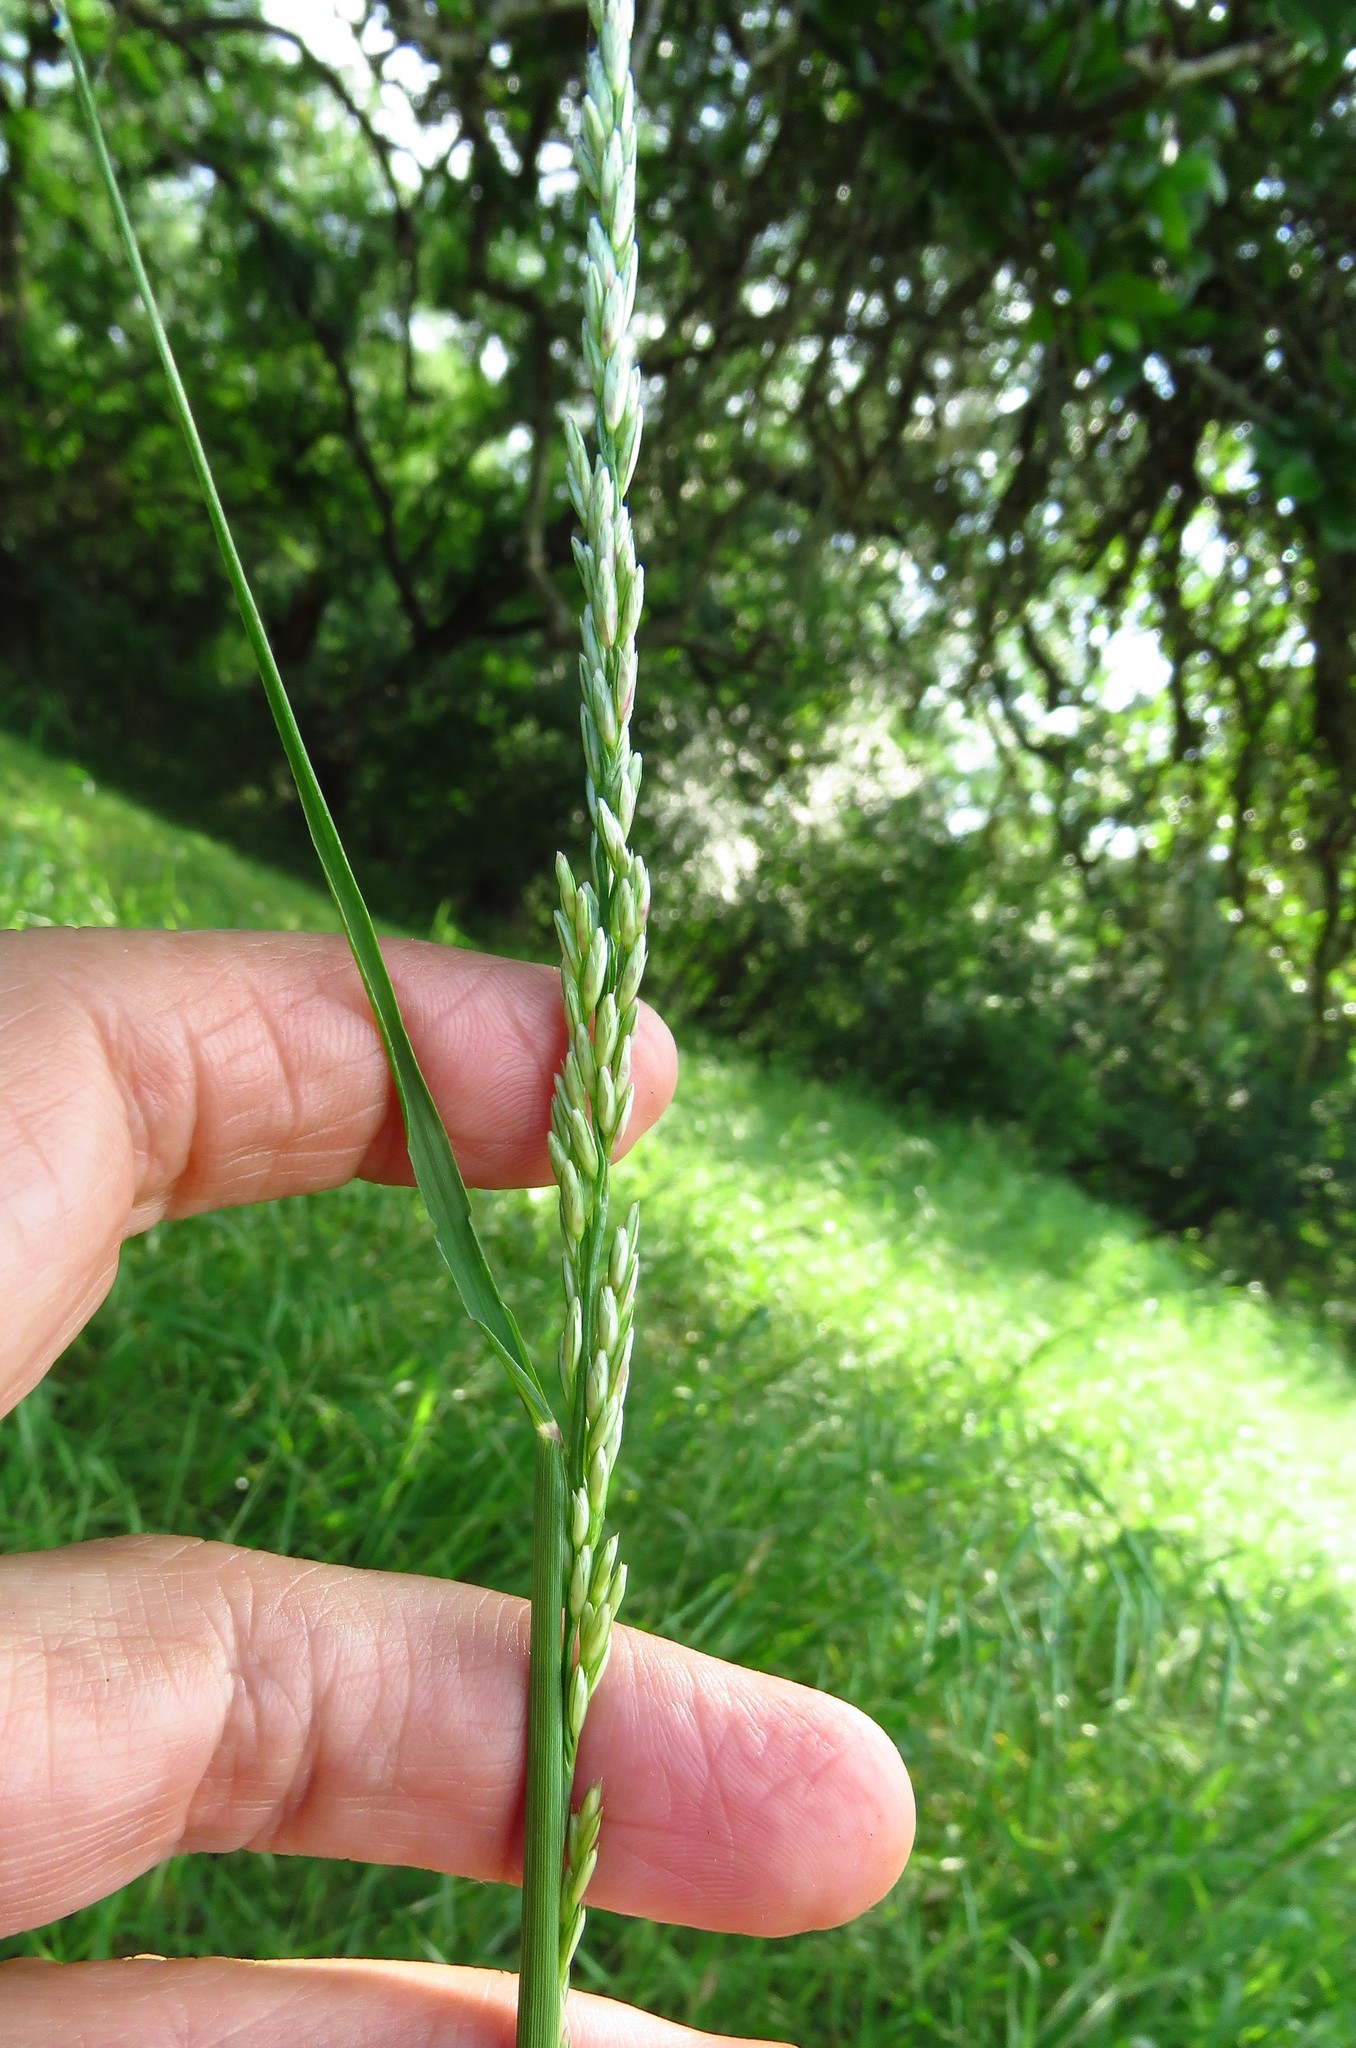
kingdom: Plantae
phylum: Tracheophyta
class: Liliopsida
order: Poales
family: Poaceae
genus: Tridens
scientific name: Tridens albescens
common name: White tridens
